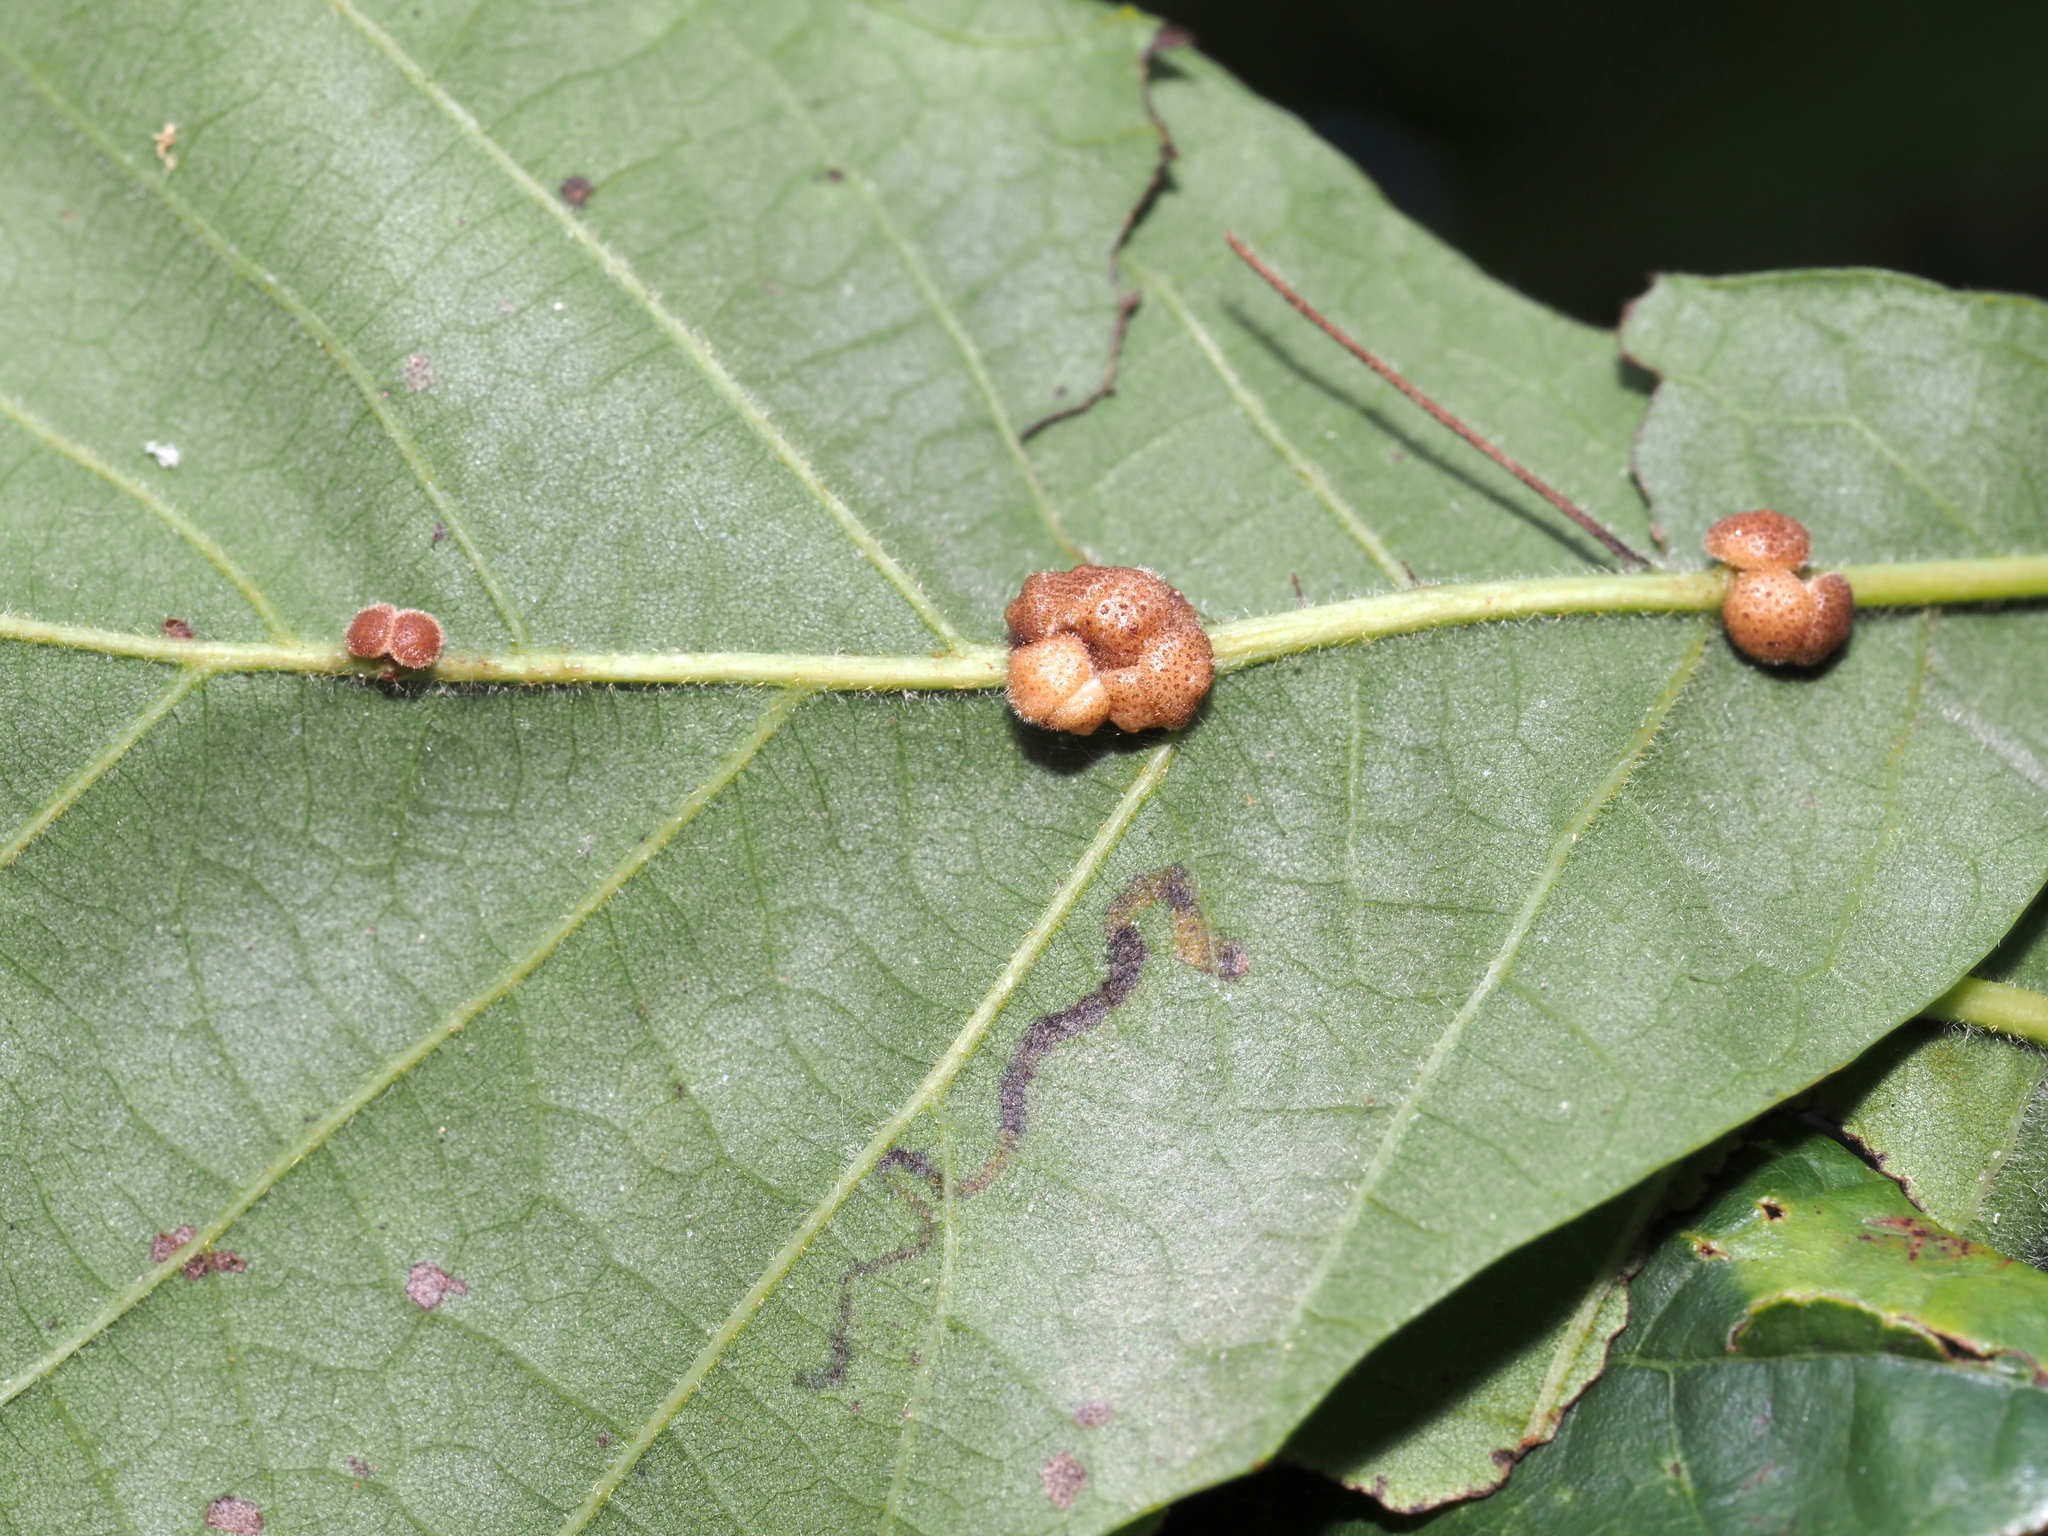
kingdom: Animalia
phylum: Arthropoda
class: Insecta
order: Hymenoptera
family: Cynipidae
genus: Andricus
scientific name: Andricus
